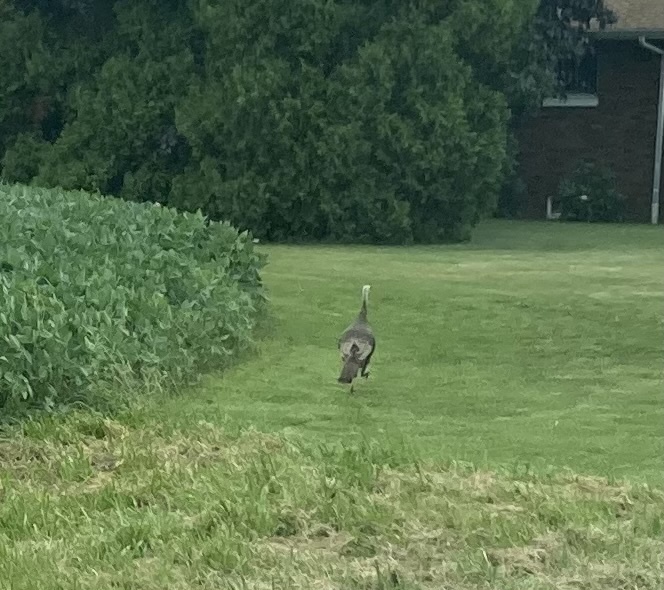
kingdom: Animalia
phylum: Chordata
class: Aves
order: Galliformes
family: Phasianidae
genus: Meleagris
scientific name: Meleagris gallopavo
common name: Wild turkey
